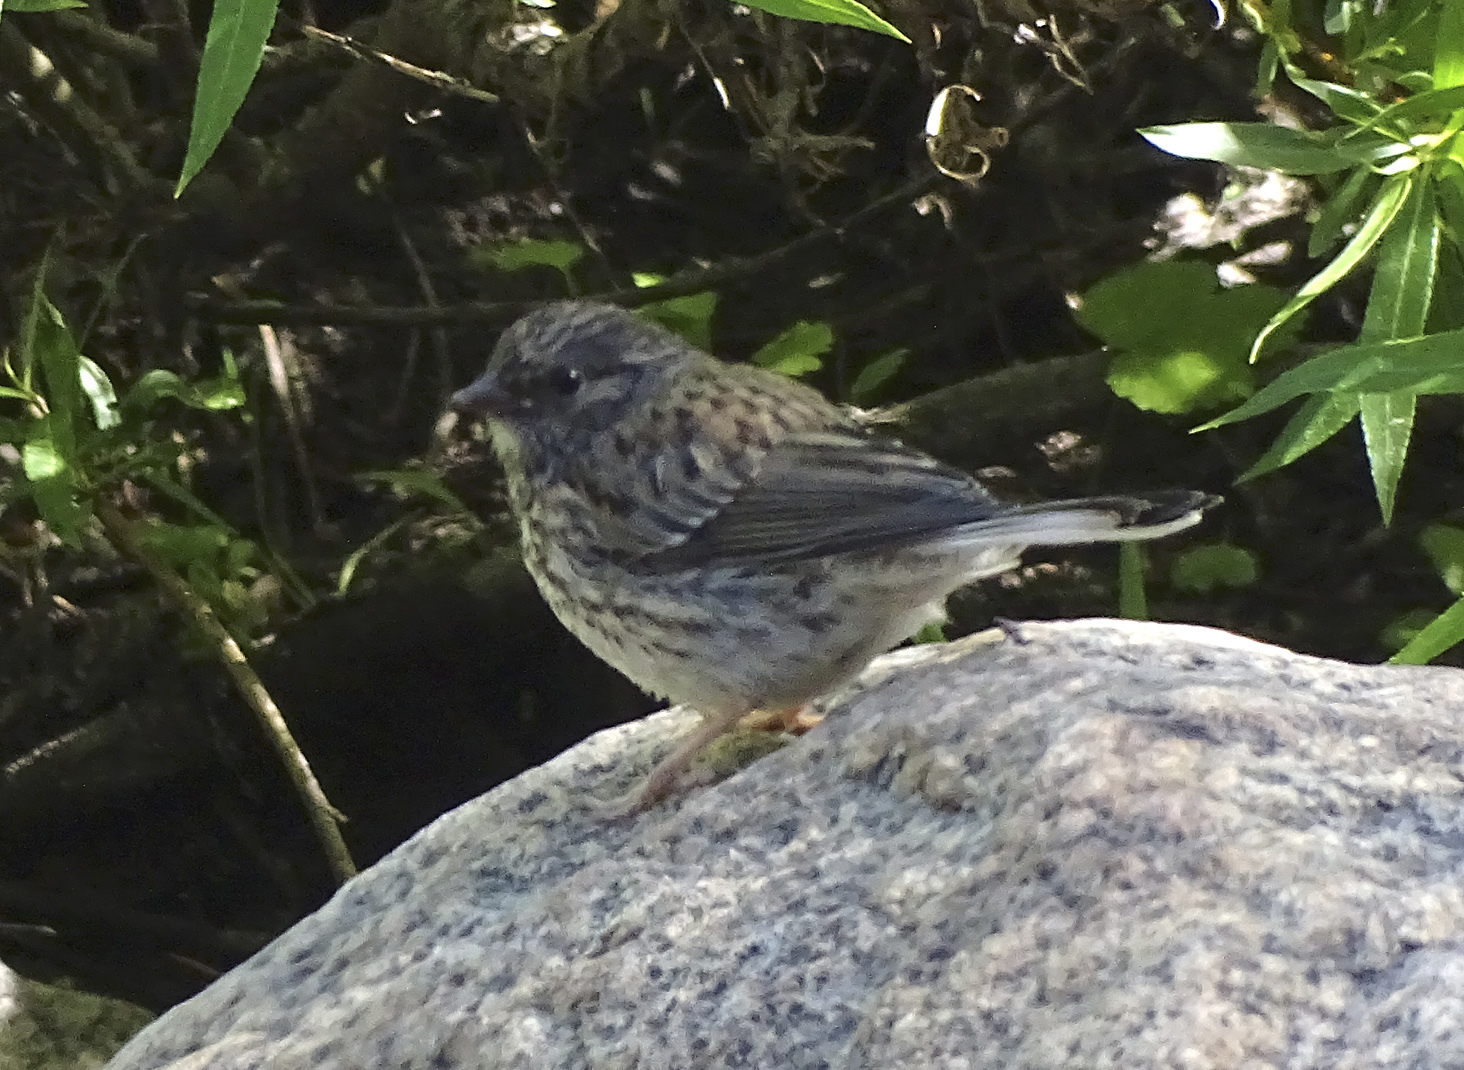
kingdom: Animalia
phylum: Chordata
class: Aves
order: Passeriformes
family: Passerellidae
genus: Junco
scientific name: Junco hyemalis
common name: Dark-eyed junco
